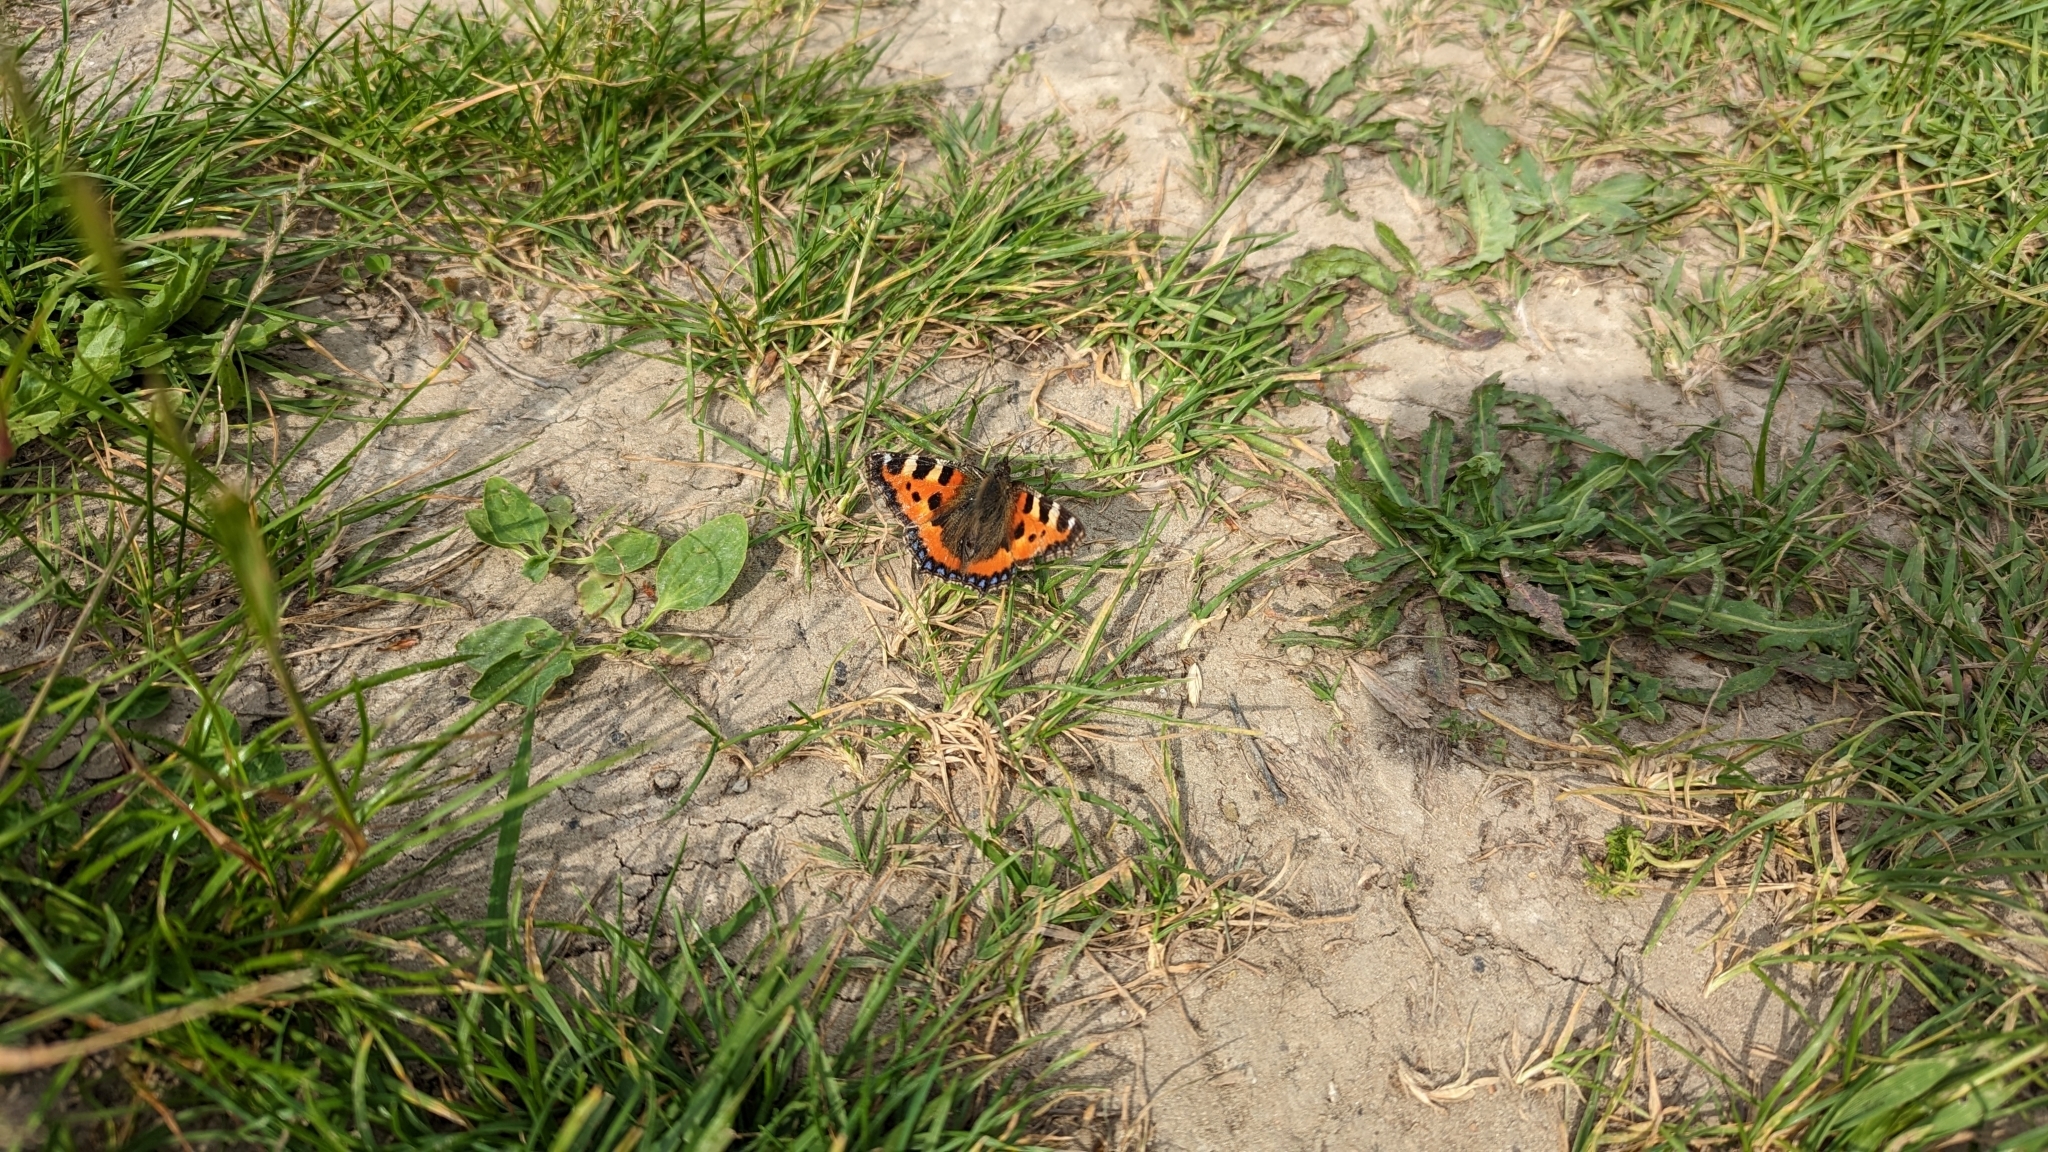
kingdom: Animalia
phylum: Arthropoda
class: Insecta
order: Lepidoptera
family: Nymphalidae
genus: Aglais
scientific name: Aglais urticae
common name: Small tortoiseshell
